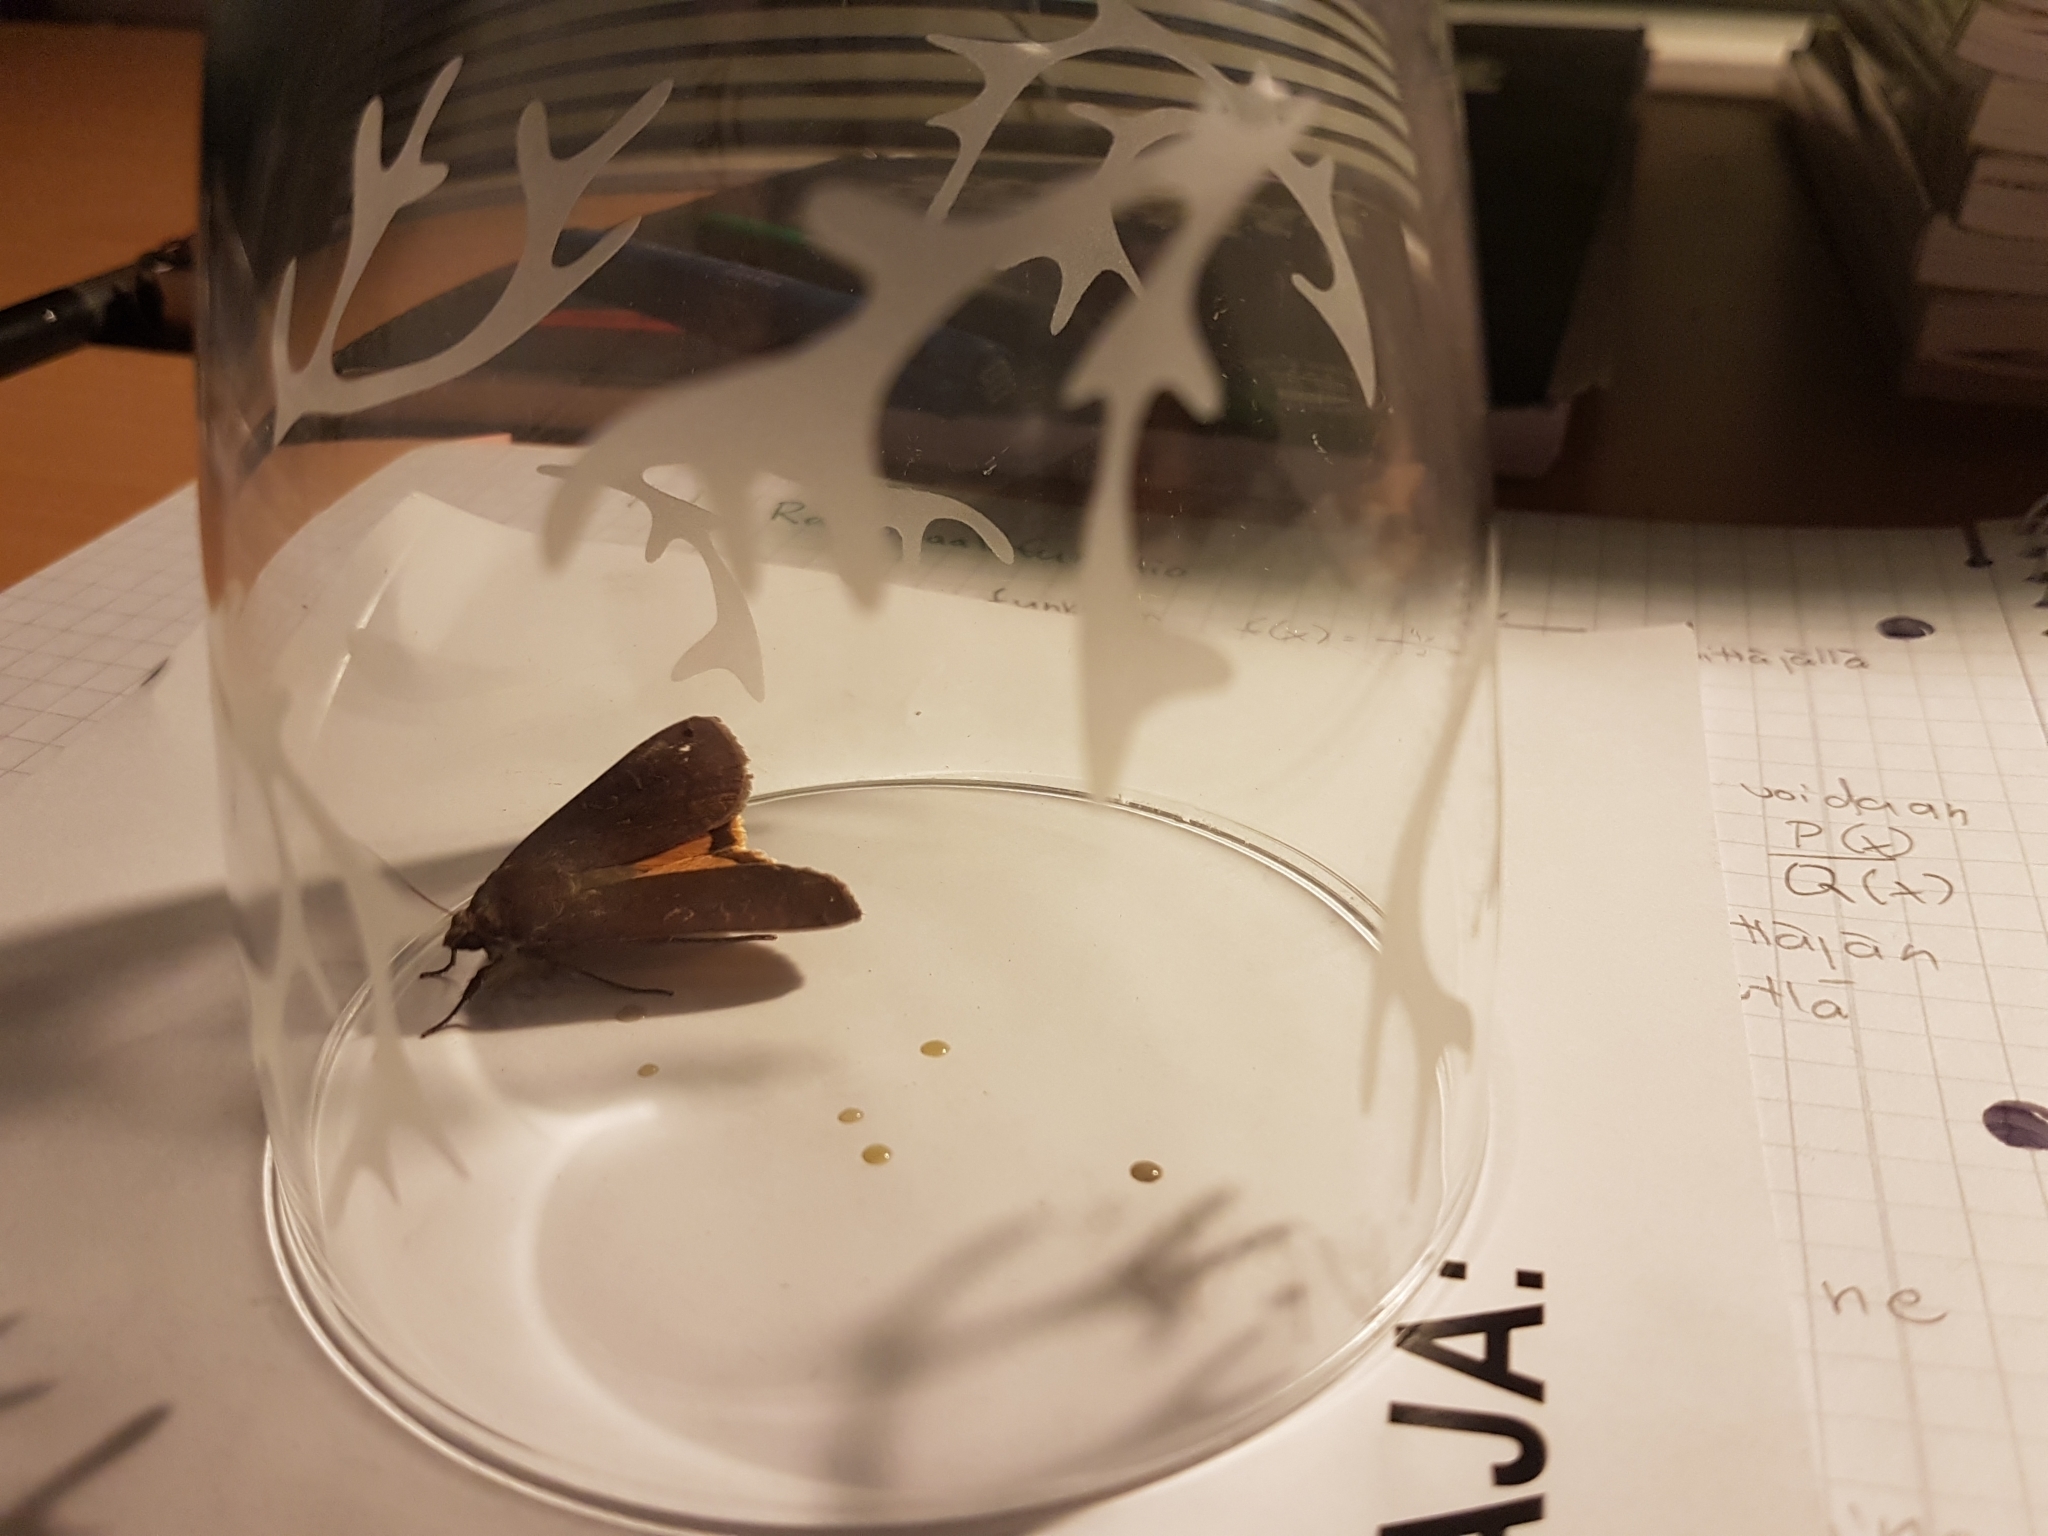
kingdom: Animalia
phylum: Arthropoda
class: Insecta
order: Lepidoptera
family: Noctuidae
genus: Noctua
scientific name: Noctua pronuba
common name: Large yellow underwing
